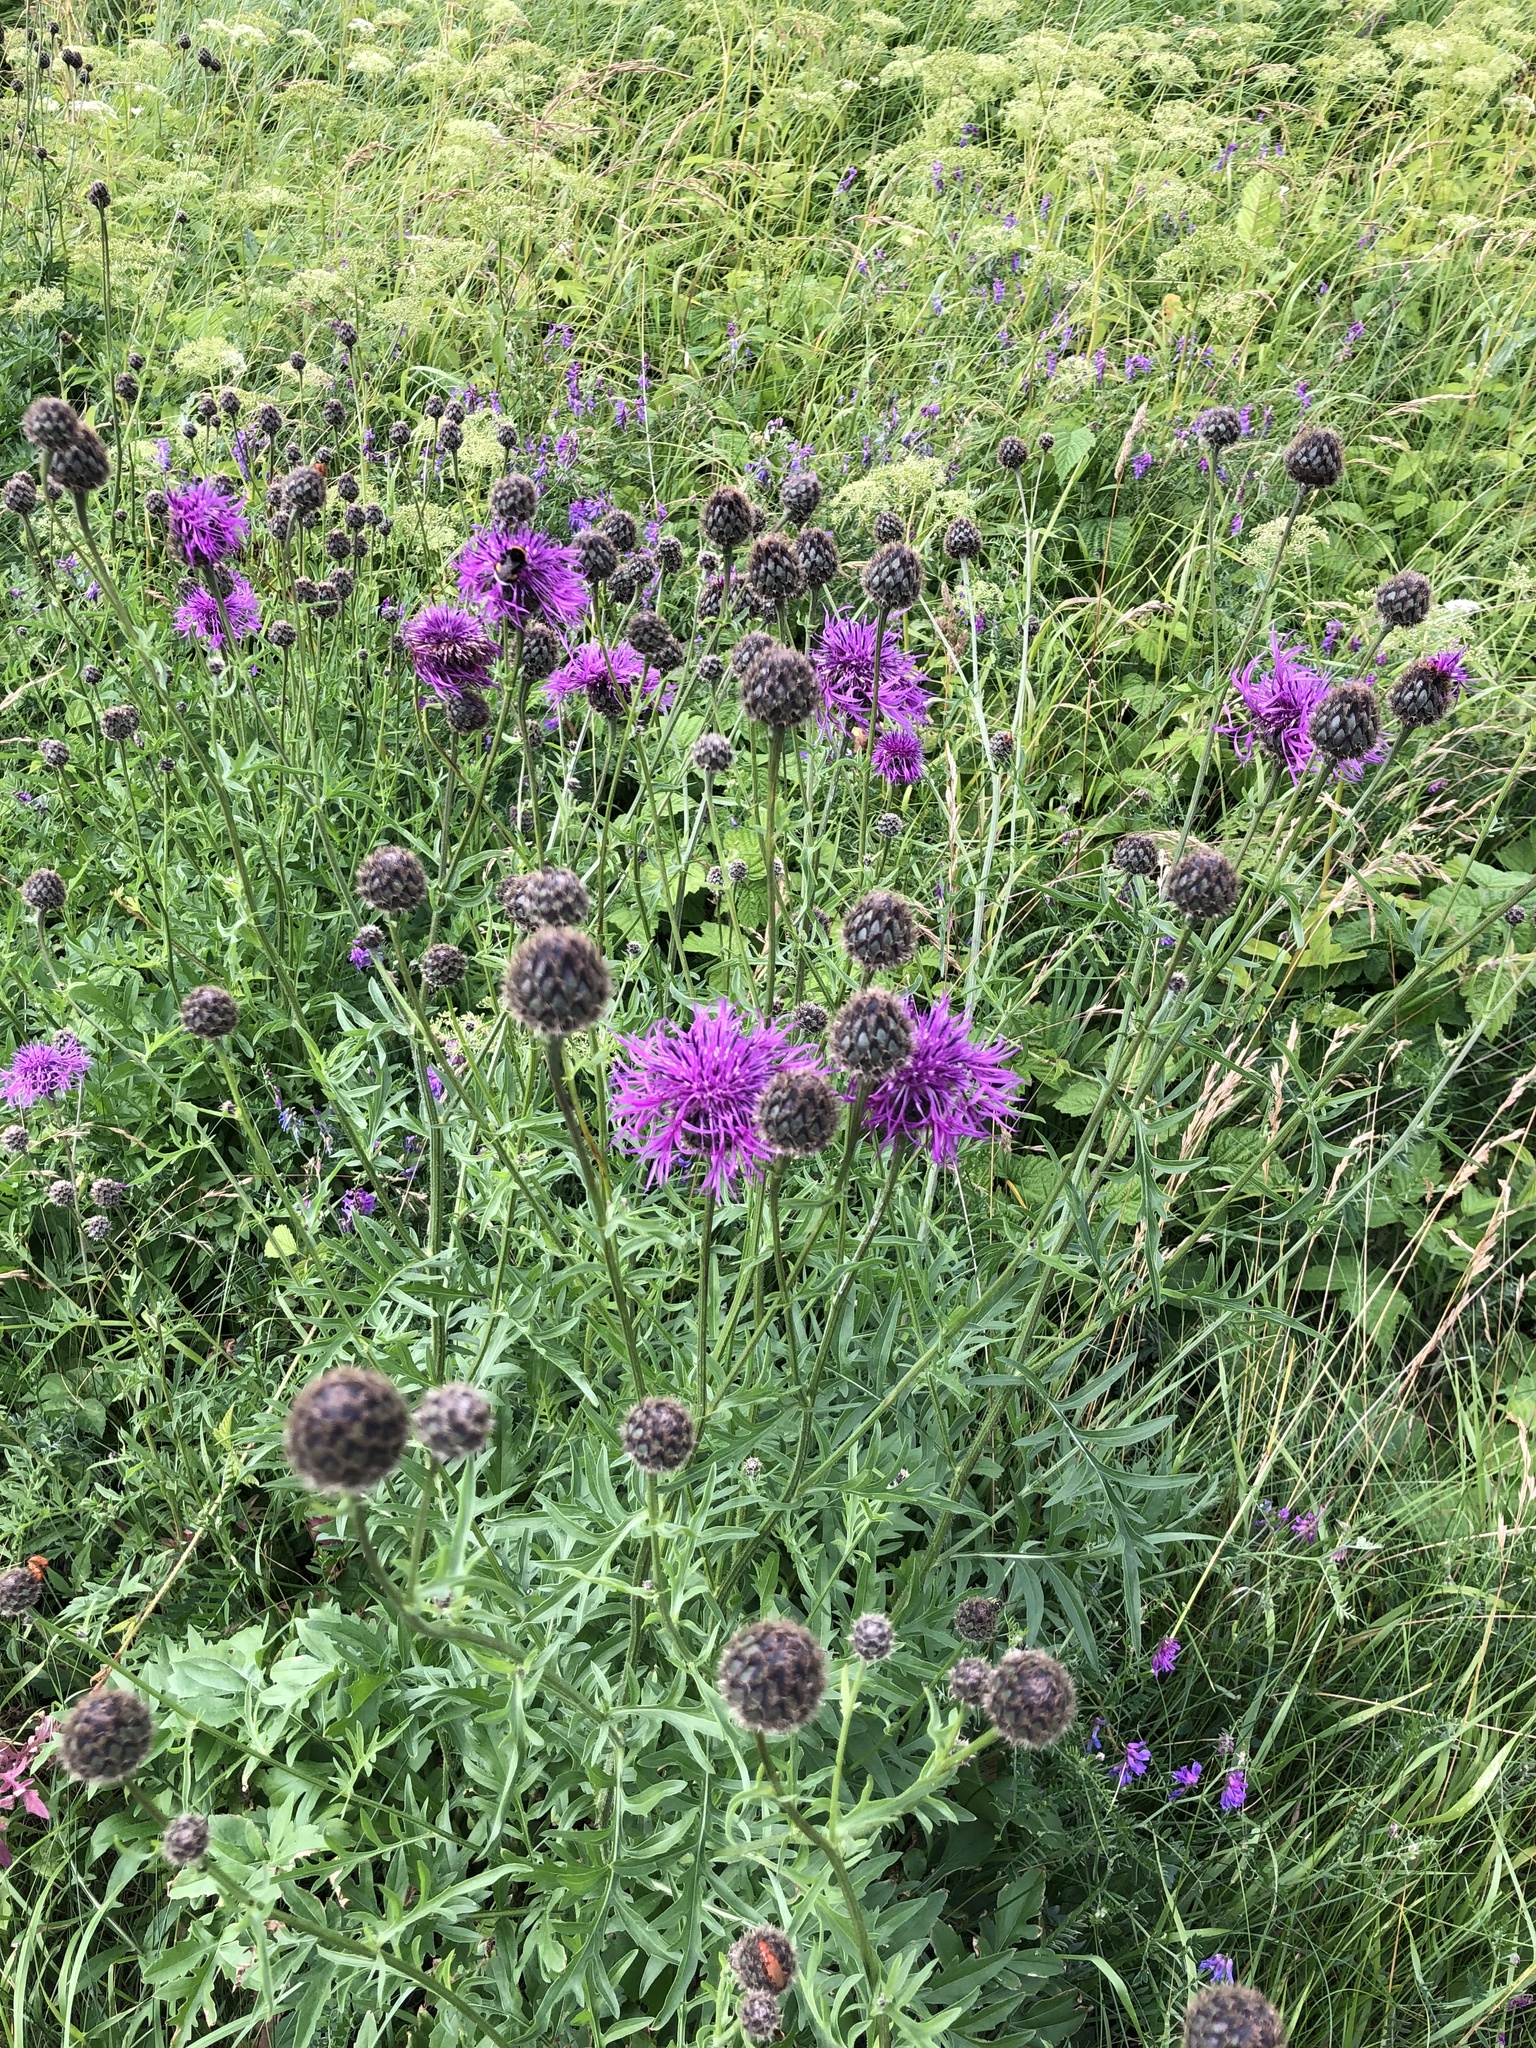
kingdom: Plantae
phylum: Tracheophyta
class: Magnoliopsida
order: Asterales
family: Asteraceae
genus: Centaurea
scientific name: Centaurea scabiosa
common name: Greater knapweed
